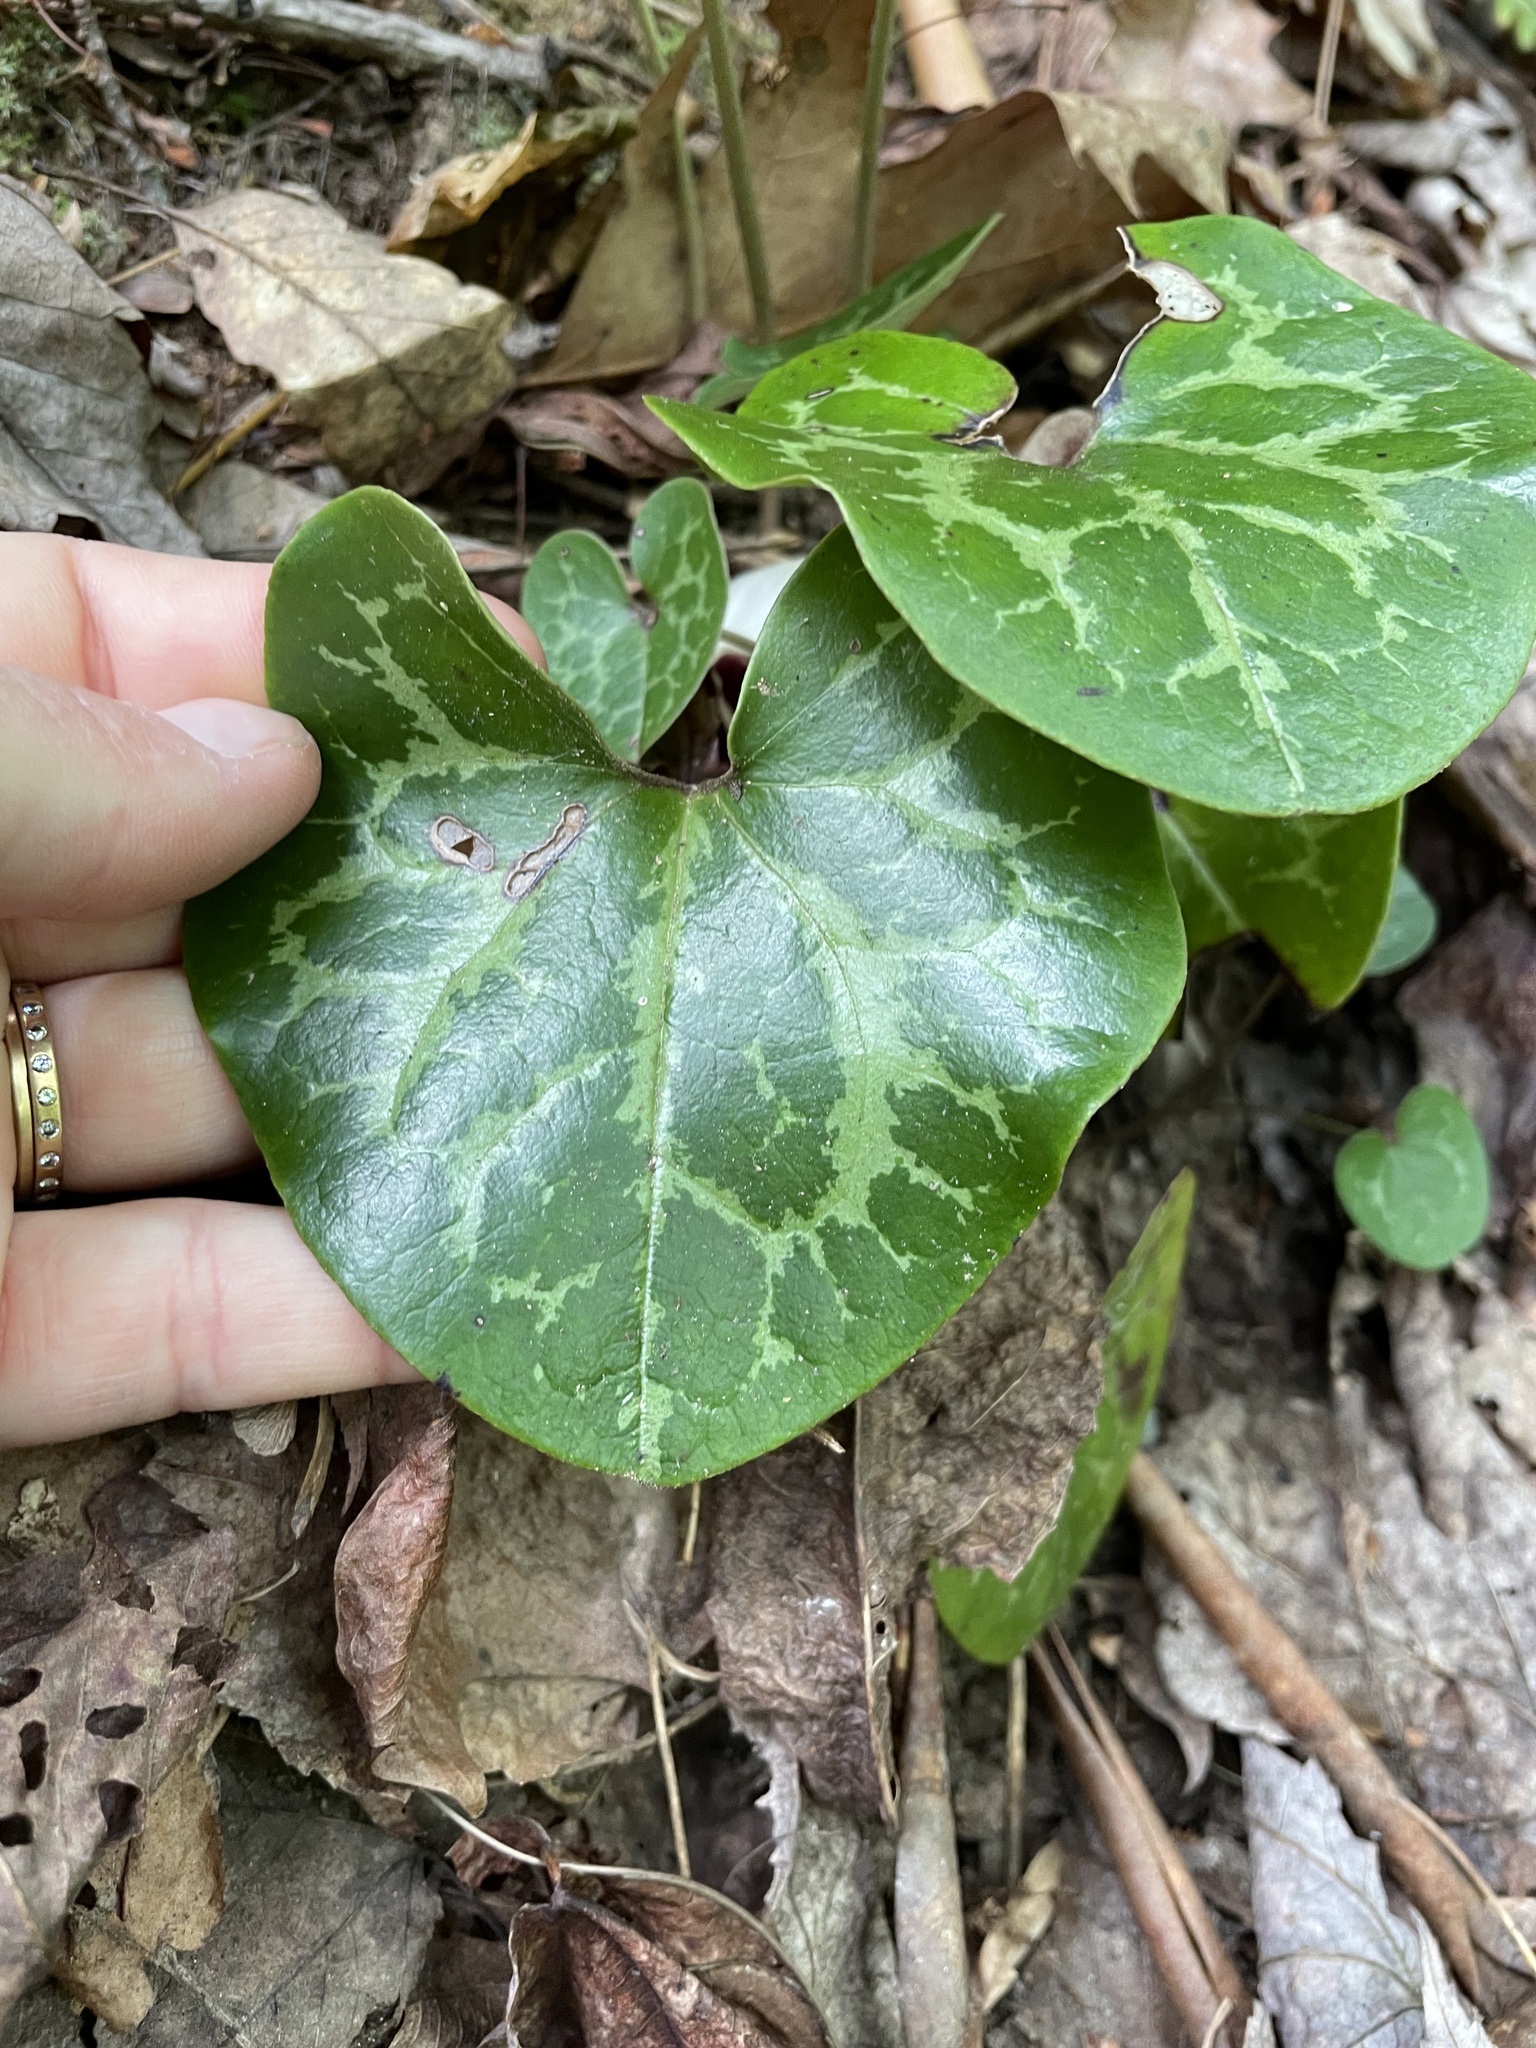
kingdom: Plantae
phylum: Tracheophyta
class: Magnoliopsida
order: Piperales
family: Aristolochiaceae
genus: Hexastylis
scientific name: Hexastylis shuttleworthii
